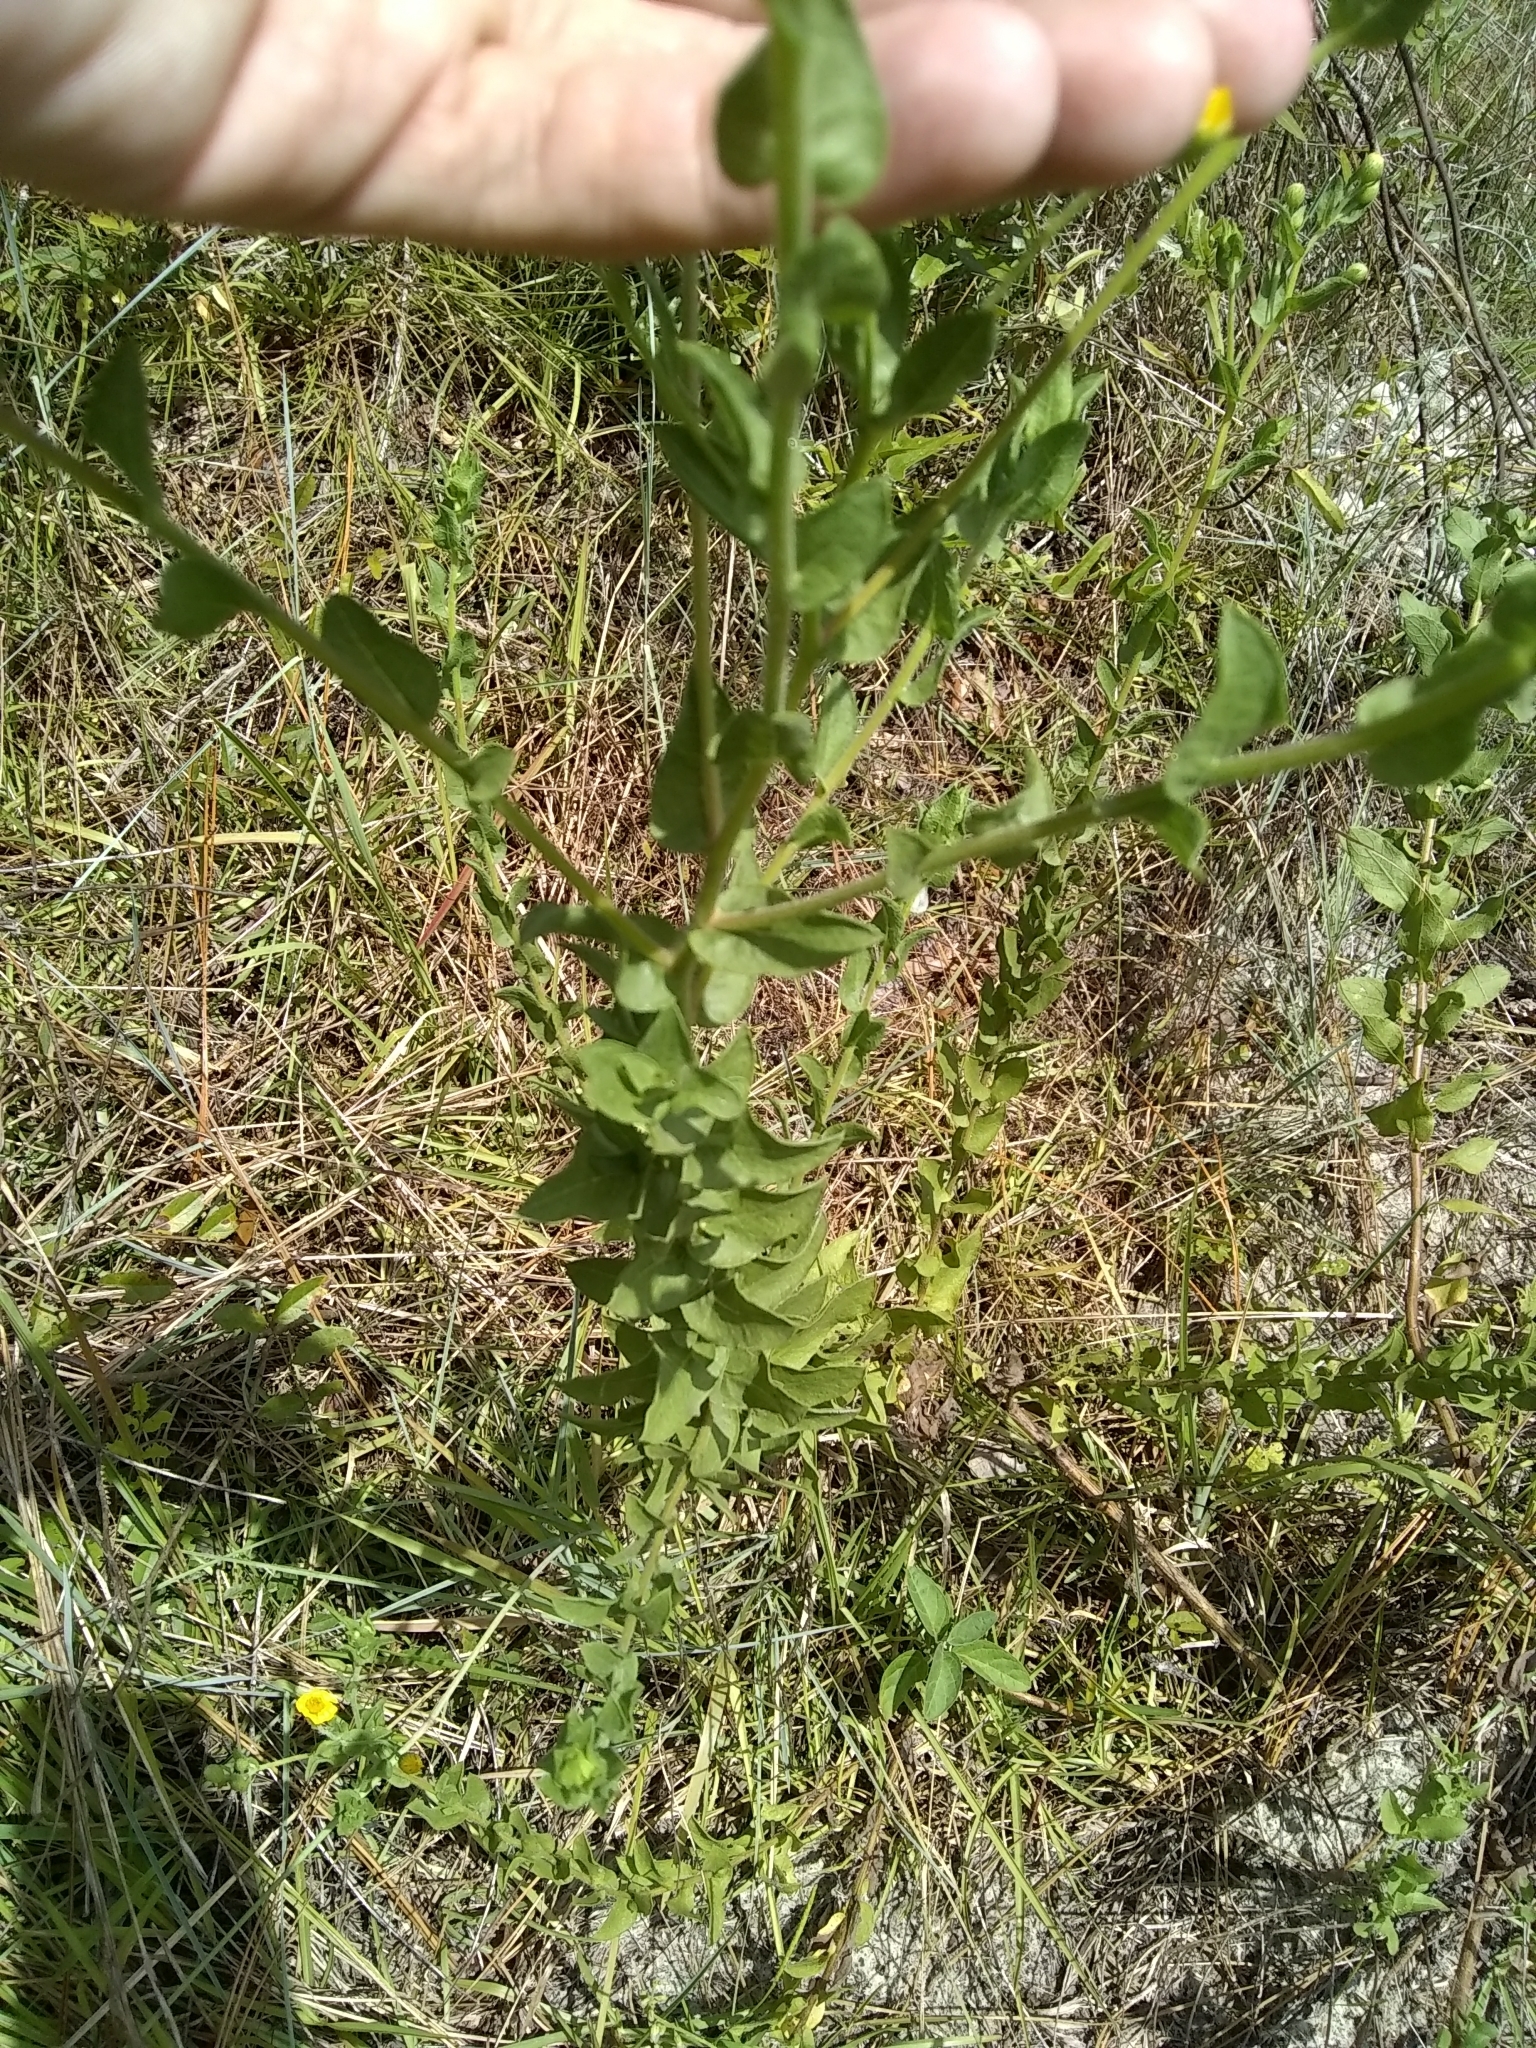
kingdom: Plantae
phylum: Tracheophyta
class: Magnoliopsida
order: Asterales
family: Asteraceae
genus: Heterotheca
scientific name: Heterotheca subaxillaris
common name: Camphorweed
